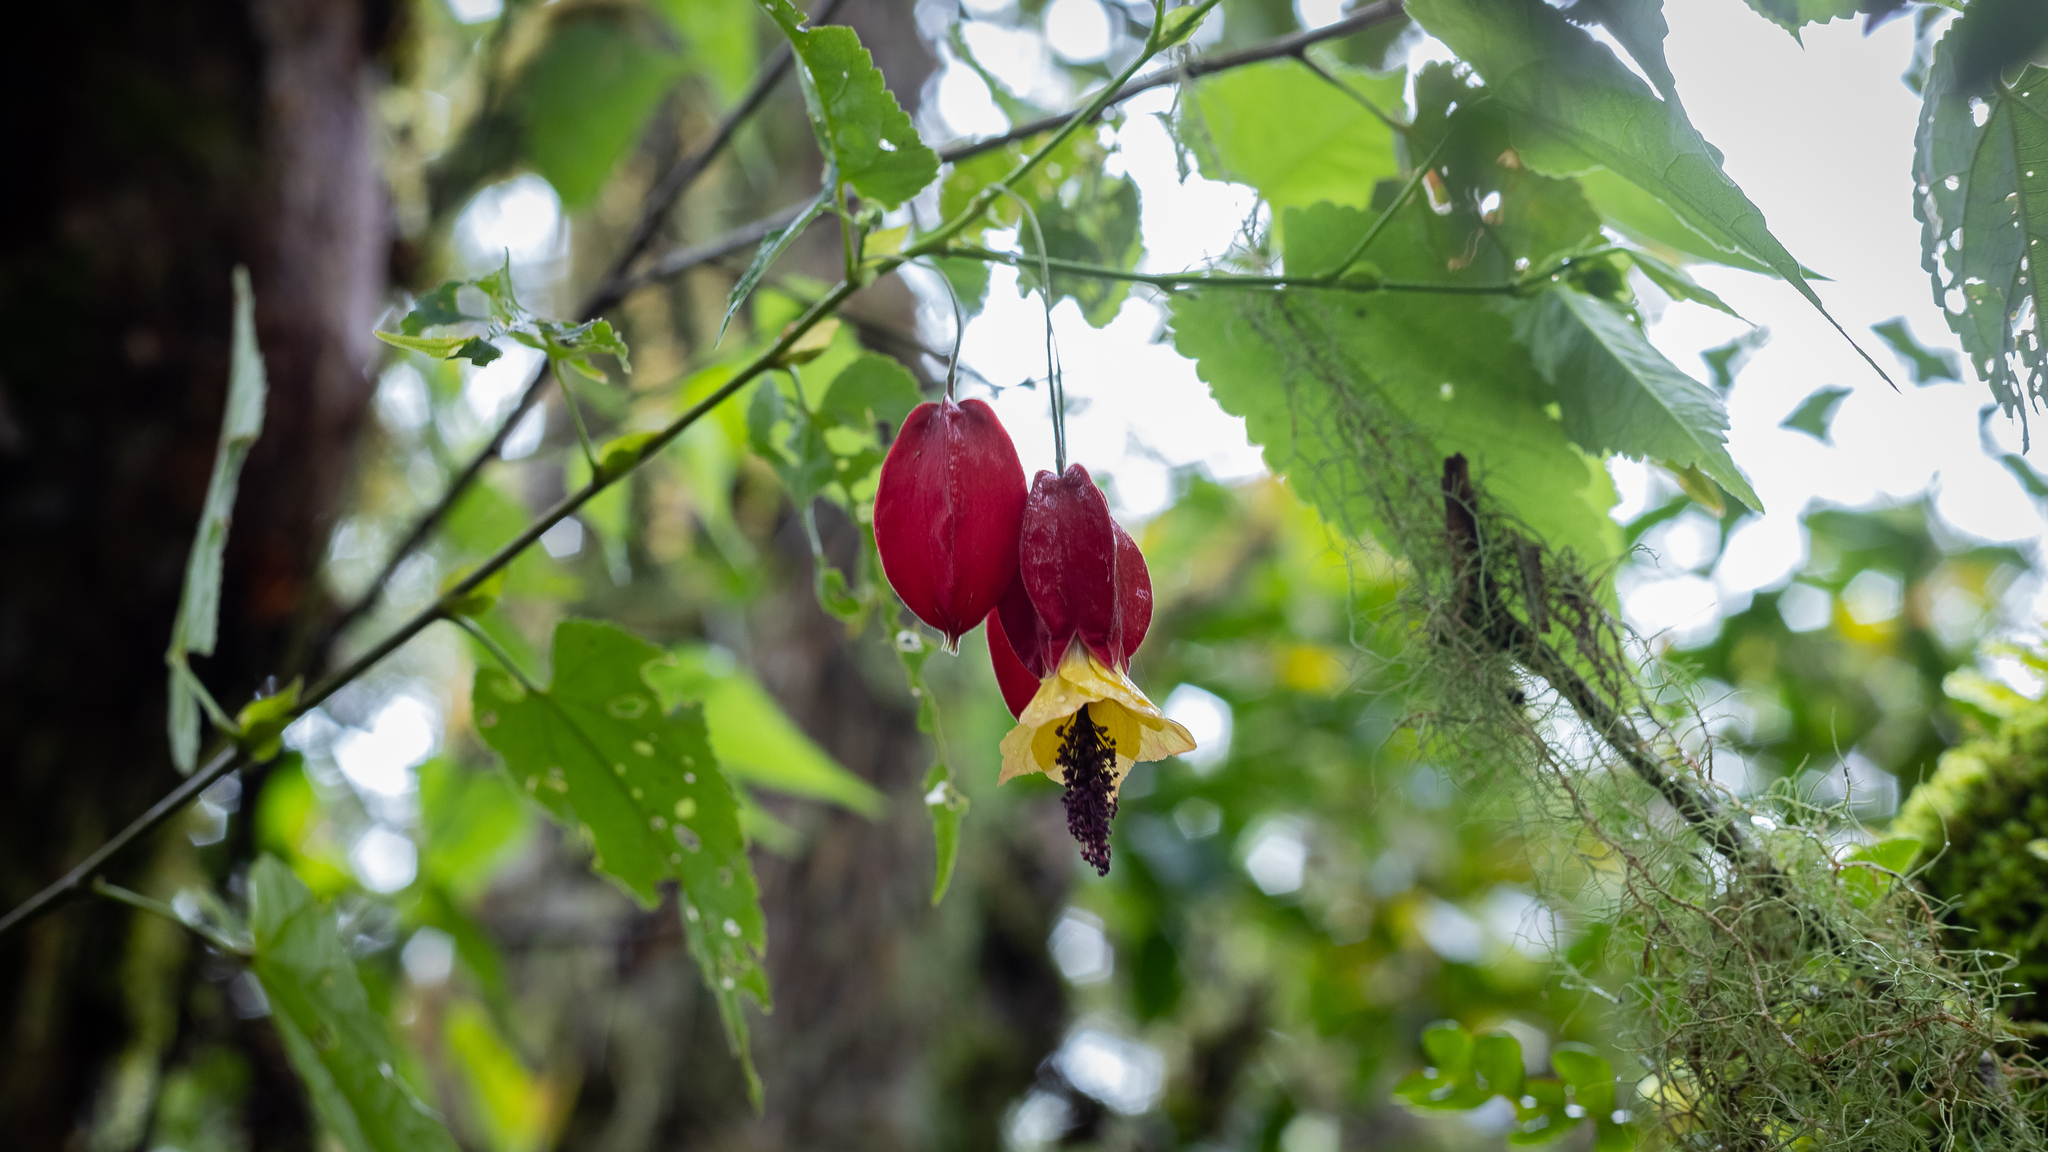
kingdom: Plantae
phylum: Tracheophyta
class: Magnoliopsida
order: Malvales
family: Malvaceae
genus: Callianthe
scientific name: Callianthe megapotamica
